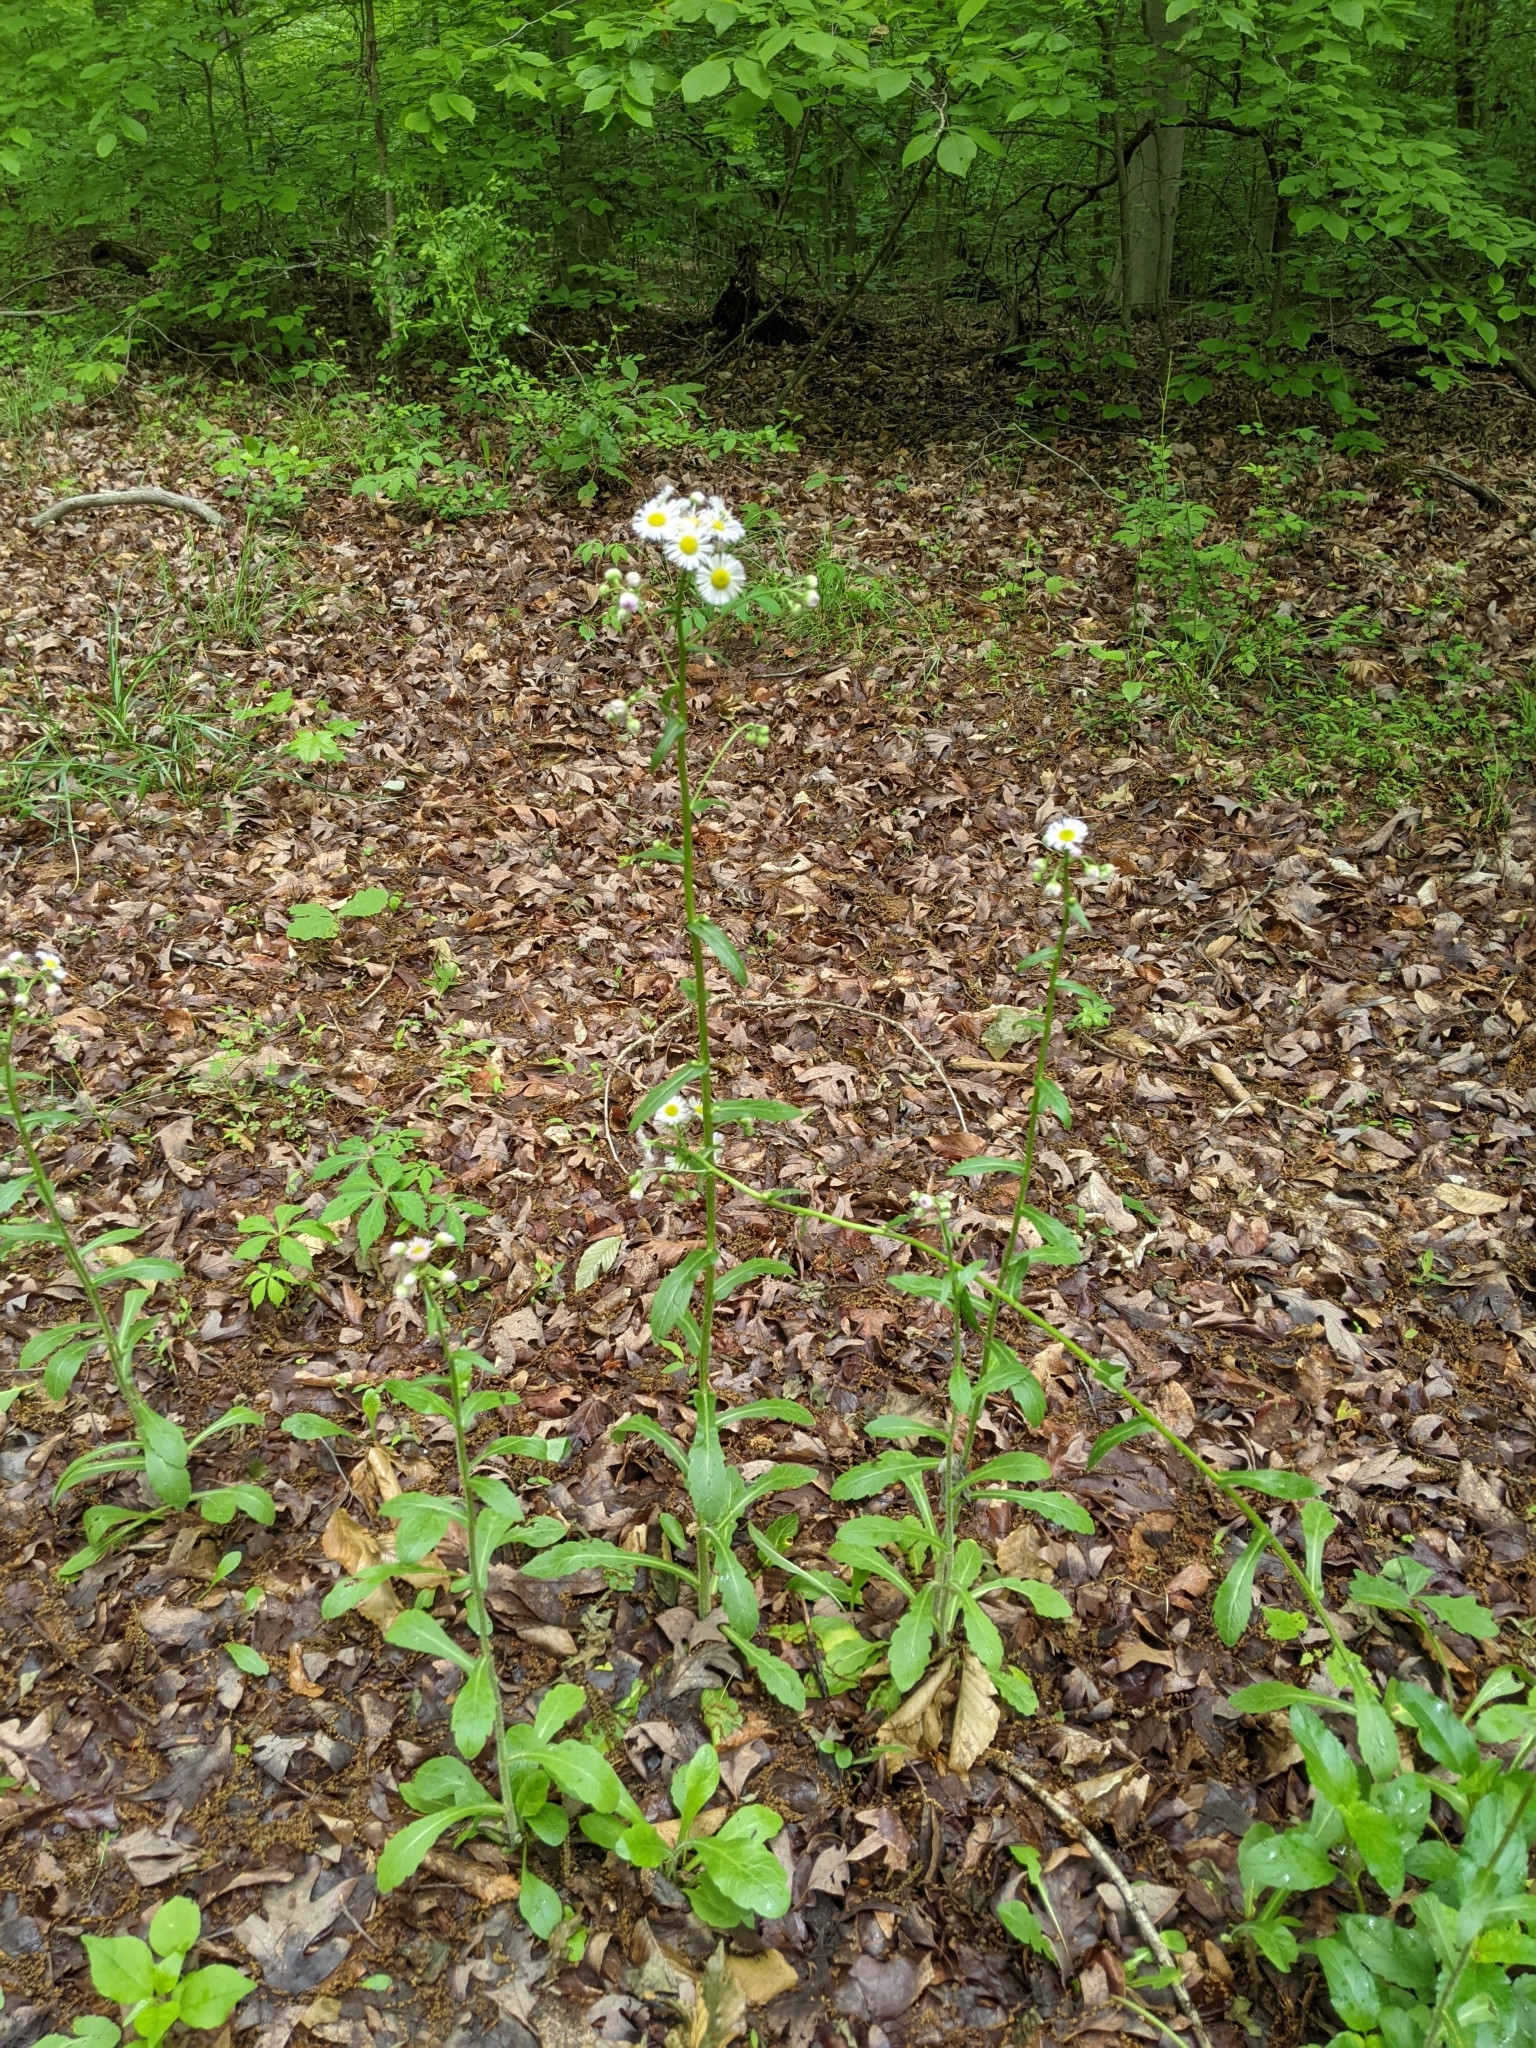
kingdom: Plantae
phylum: Tracheophyta
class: Magnoliopsida
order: Asterales
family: Asteraceae
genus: Erigeron
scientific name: Erigeron philadelphicus
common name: Robin's-plantain
